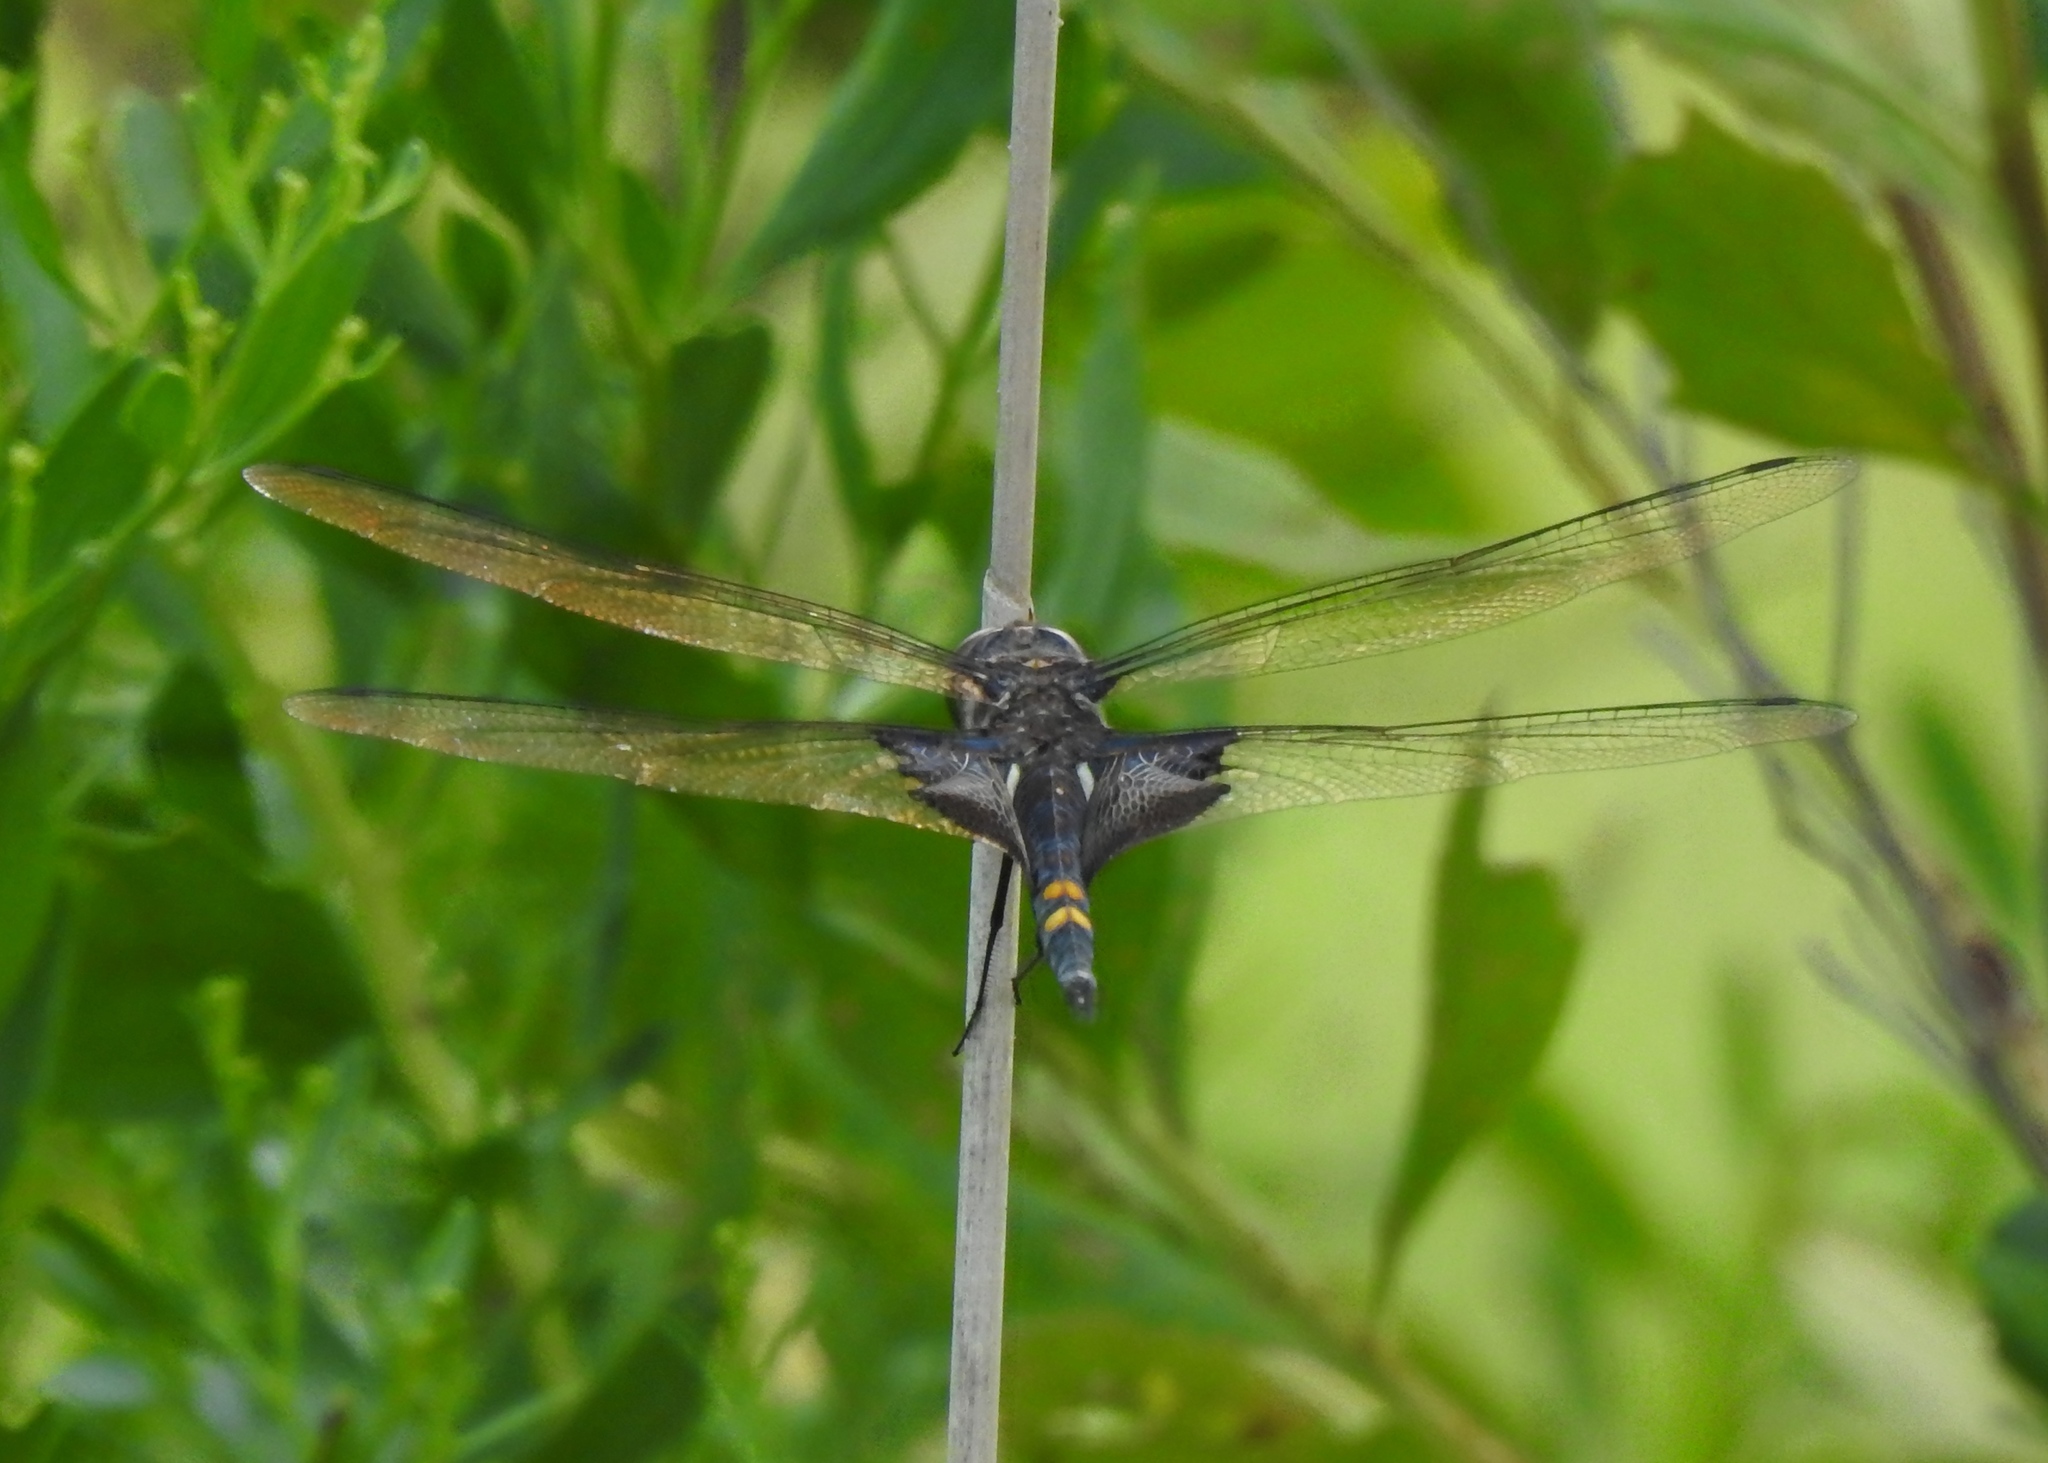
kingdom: Animalia
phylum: Arthropoda
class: Insecta
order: Odonata
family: Libellulidae
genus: Tramea
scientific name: Tramea lacerata
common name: Black saddlebags
